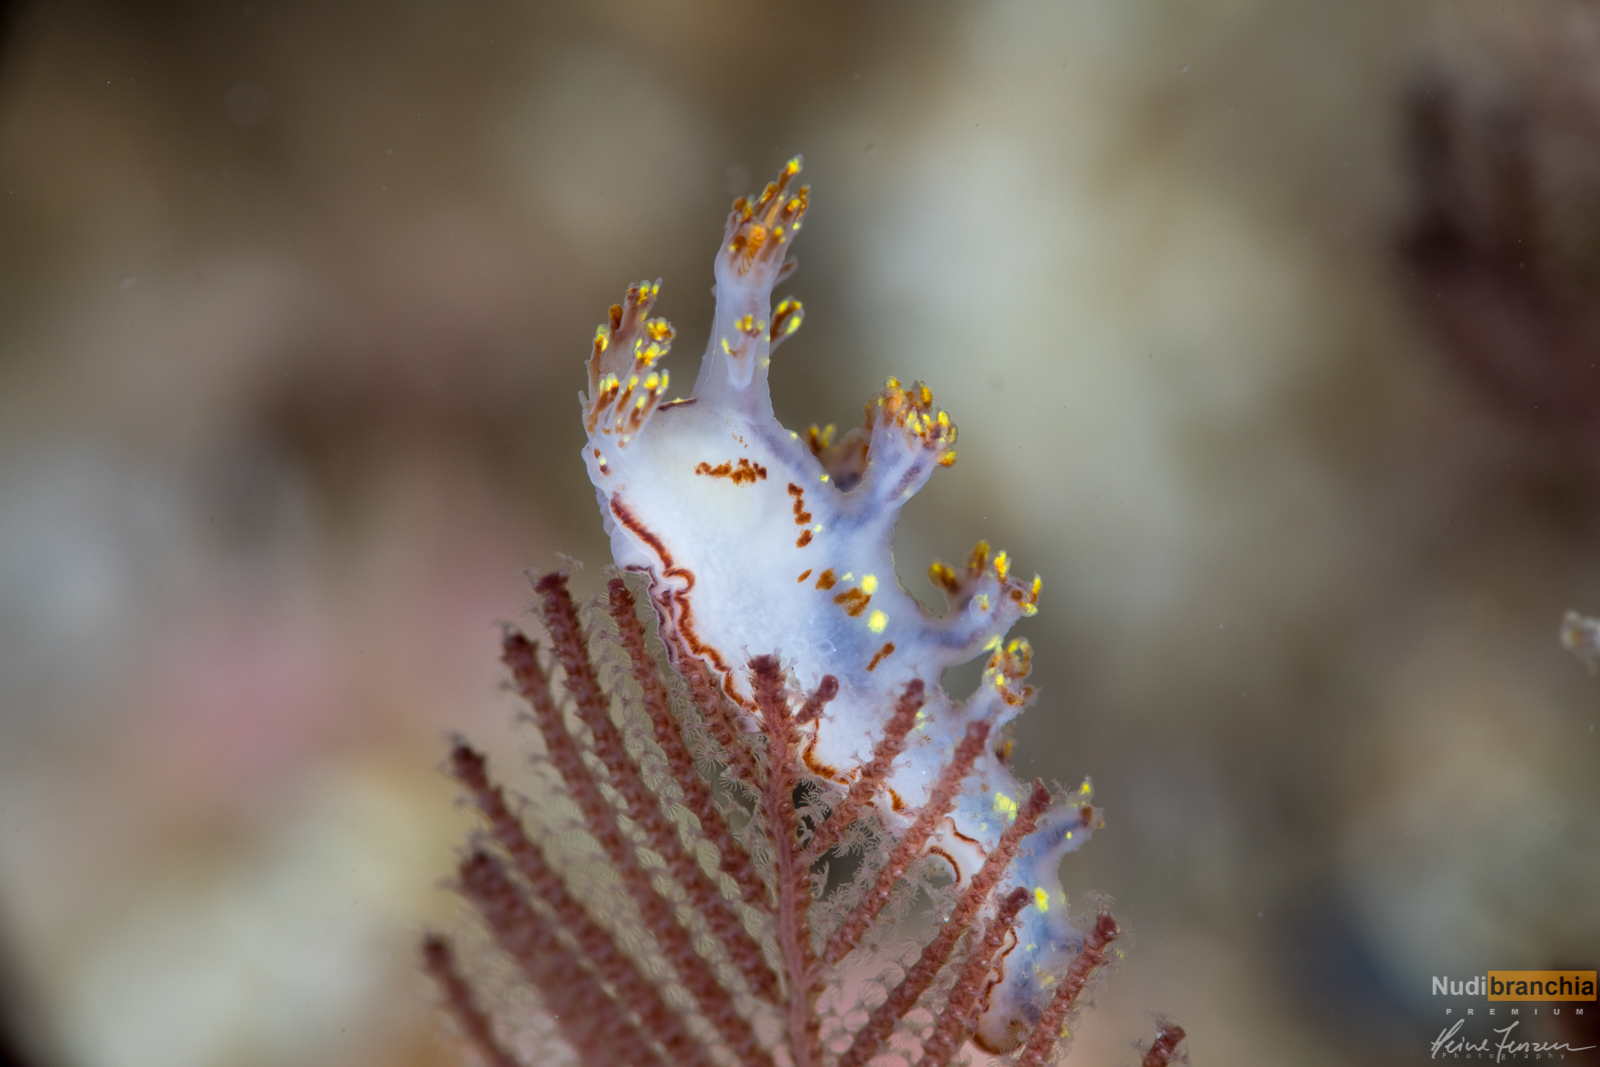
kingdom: Animalia
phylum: Mollusca
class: Gastropoda
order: Nudibranchia
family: Dendronotidae
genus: Dendronotus
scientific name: Dendronotus yrjargul
